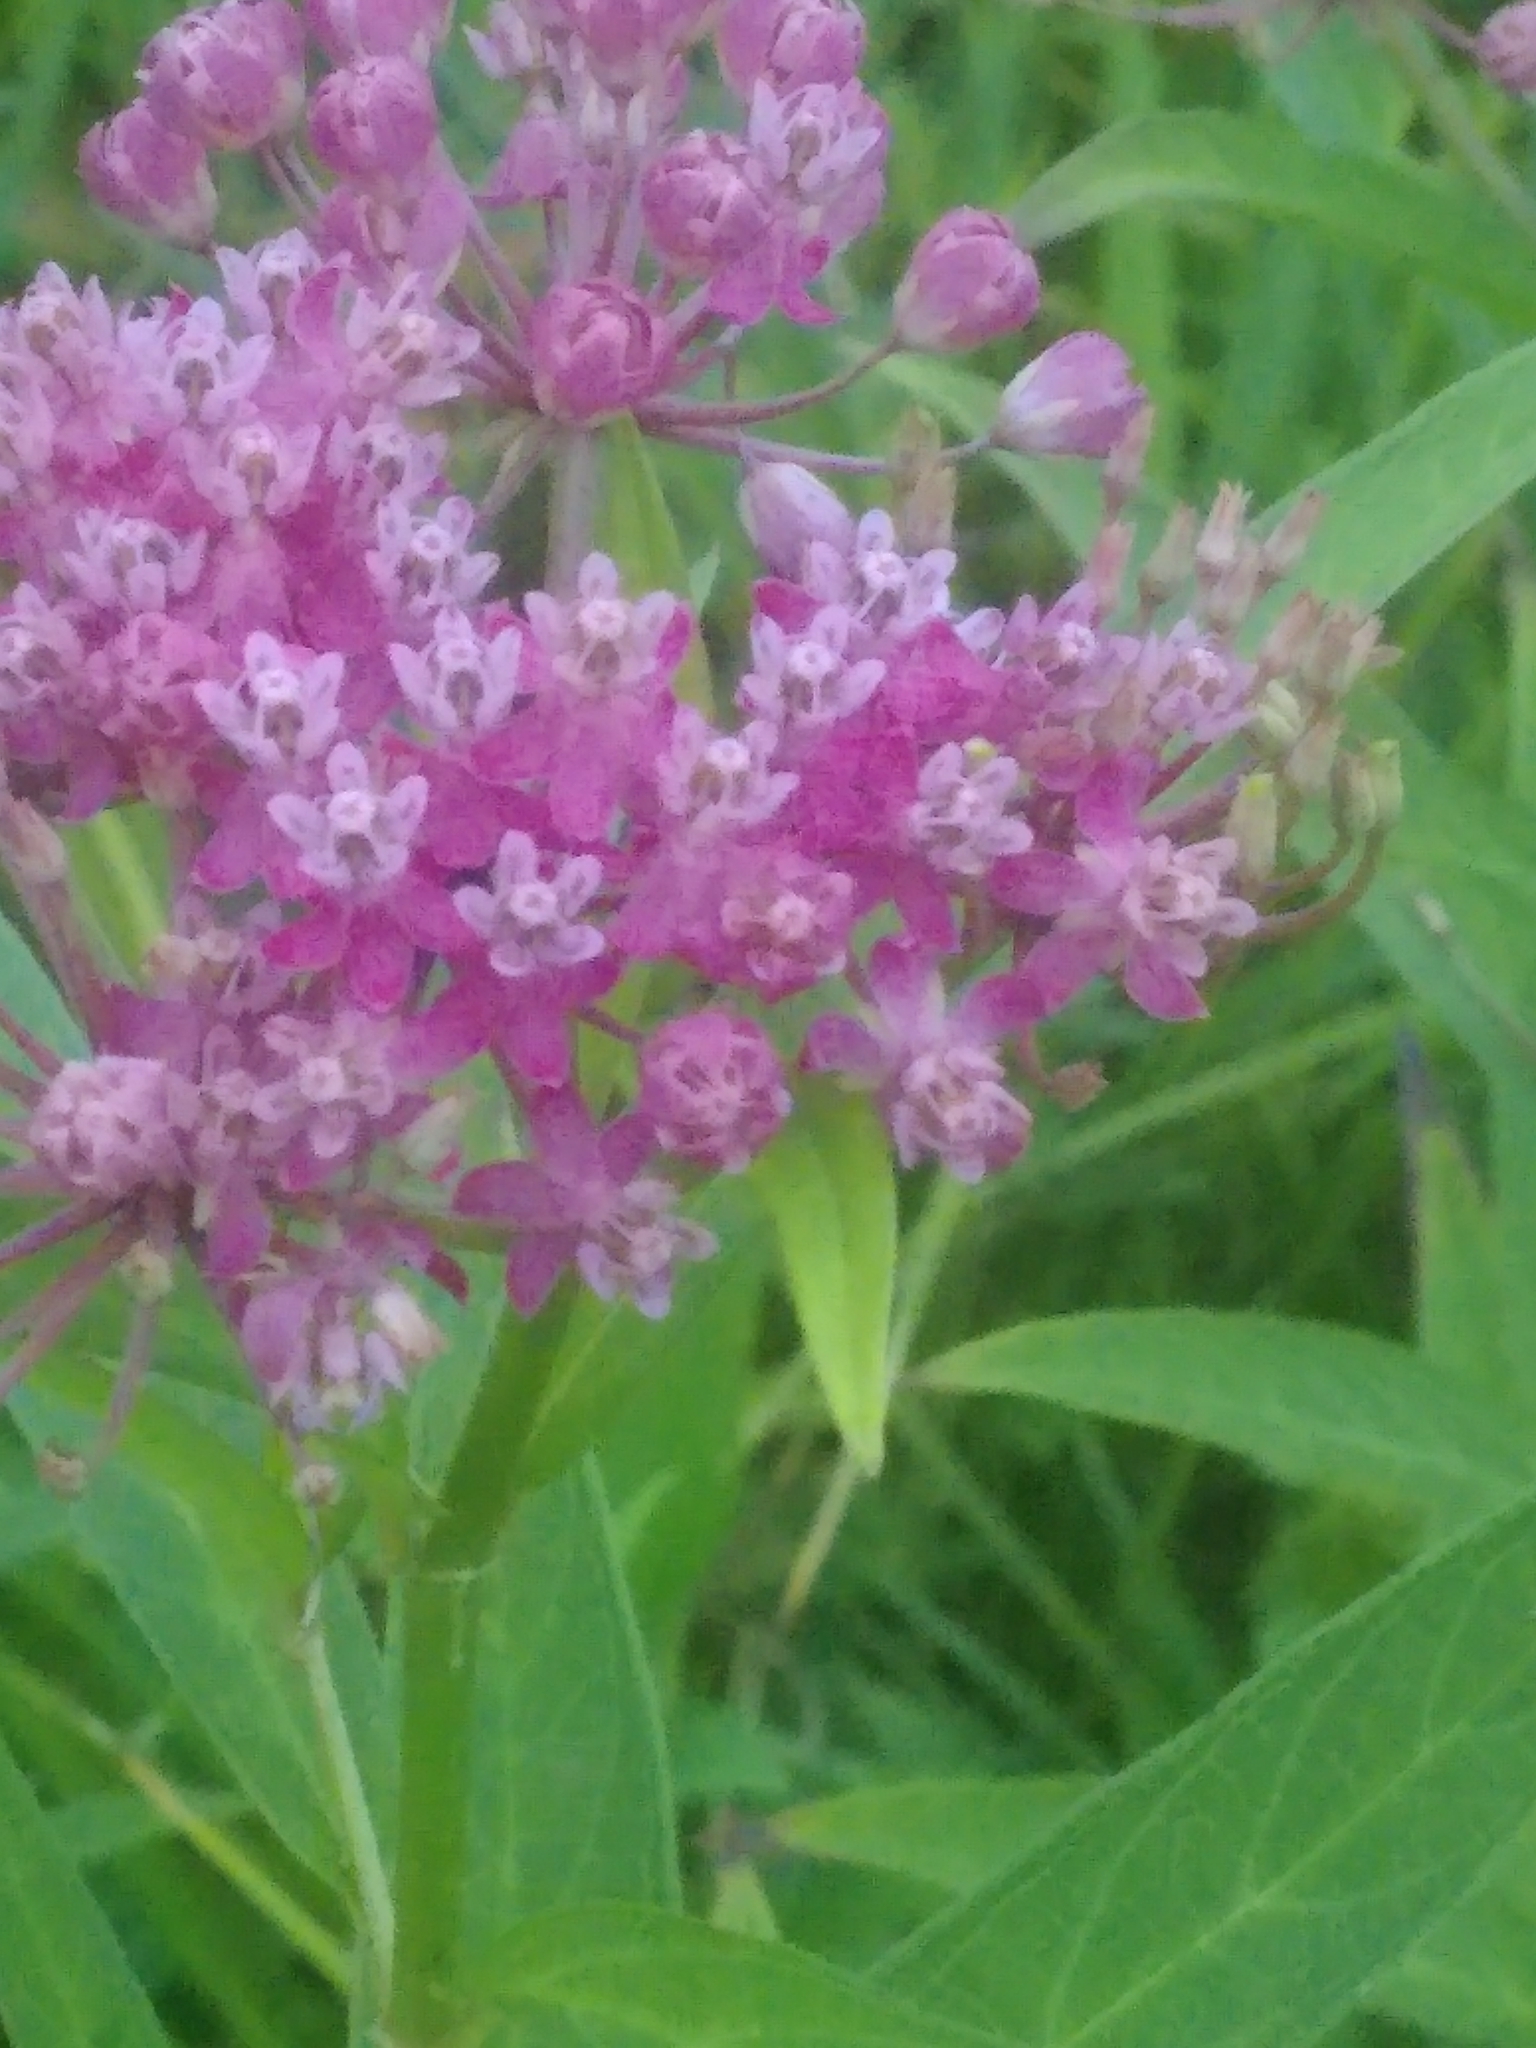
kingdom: Plantae
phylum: Tracheophyta
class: Magnoliopsida
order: Gentianales
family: Apocynaceae
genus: Asclepias
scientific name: Asclepias incarnata
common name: Swamp milkweed
